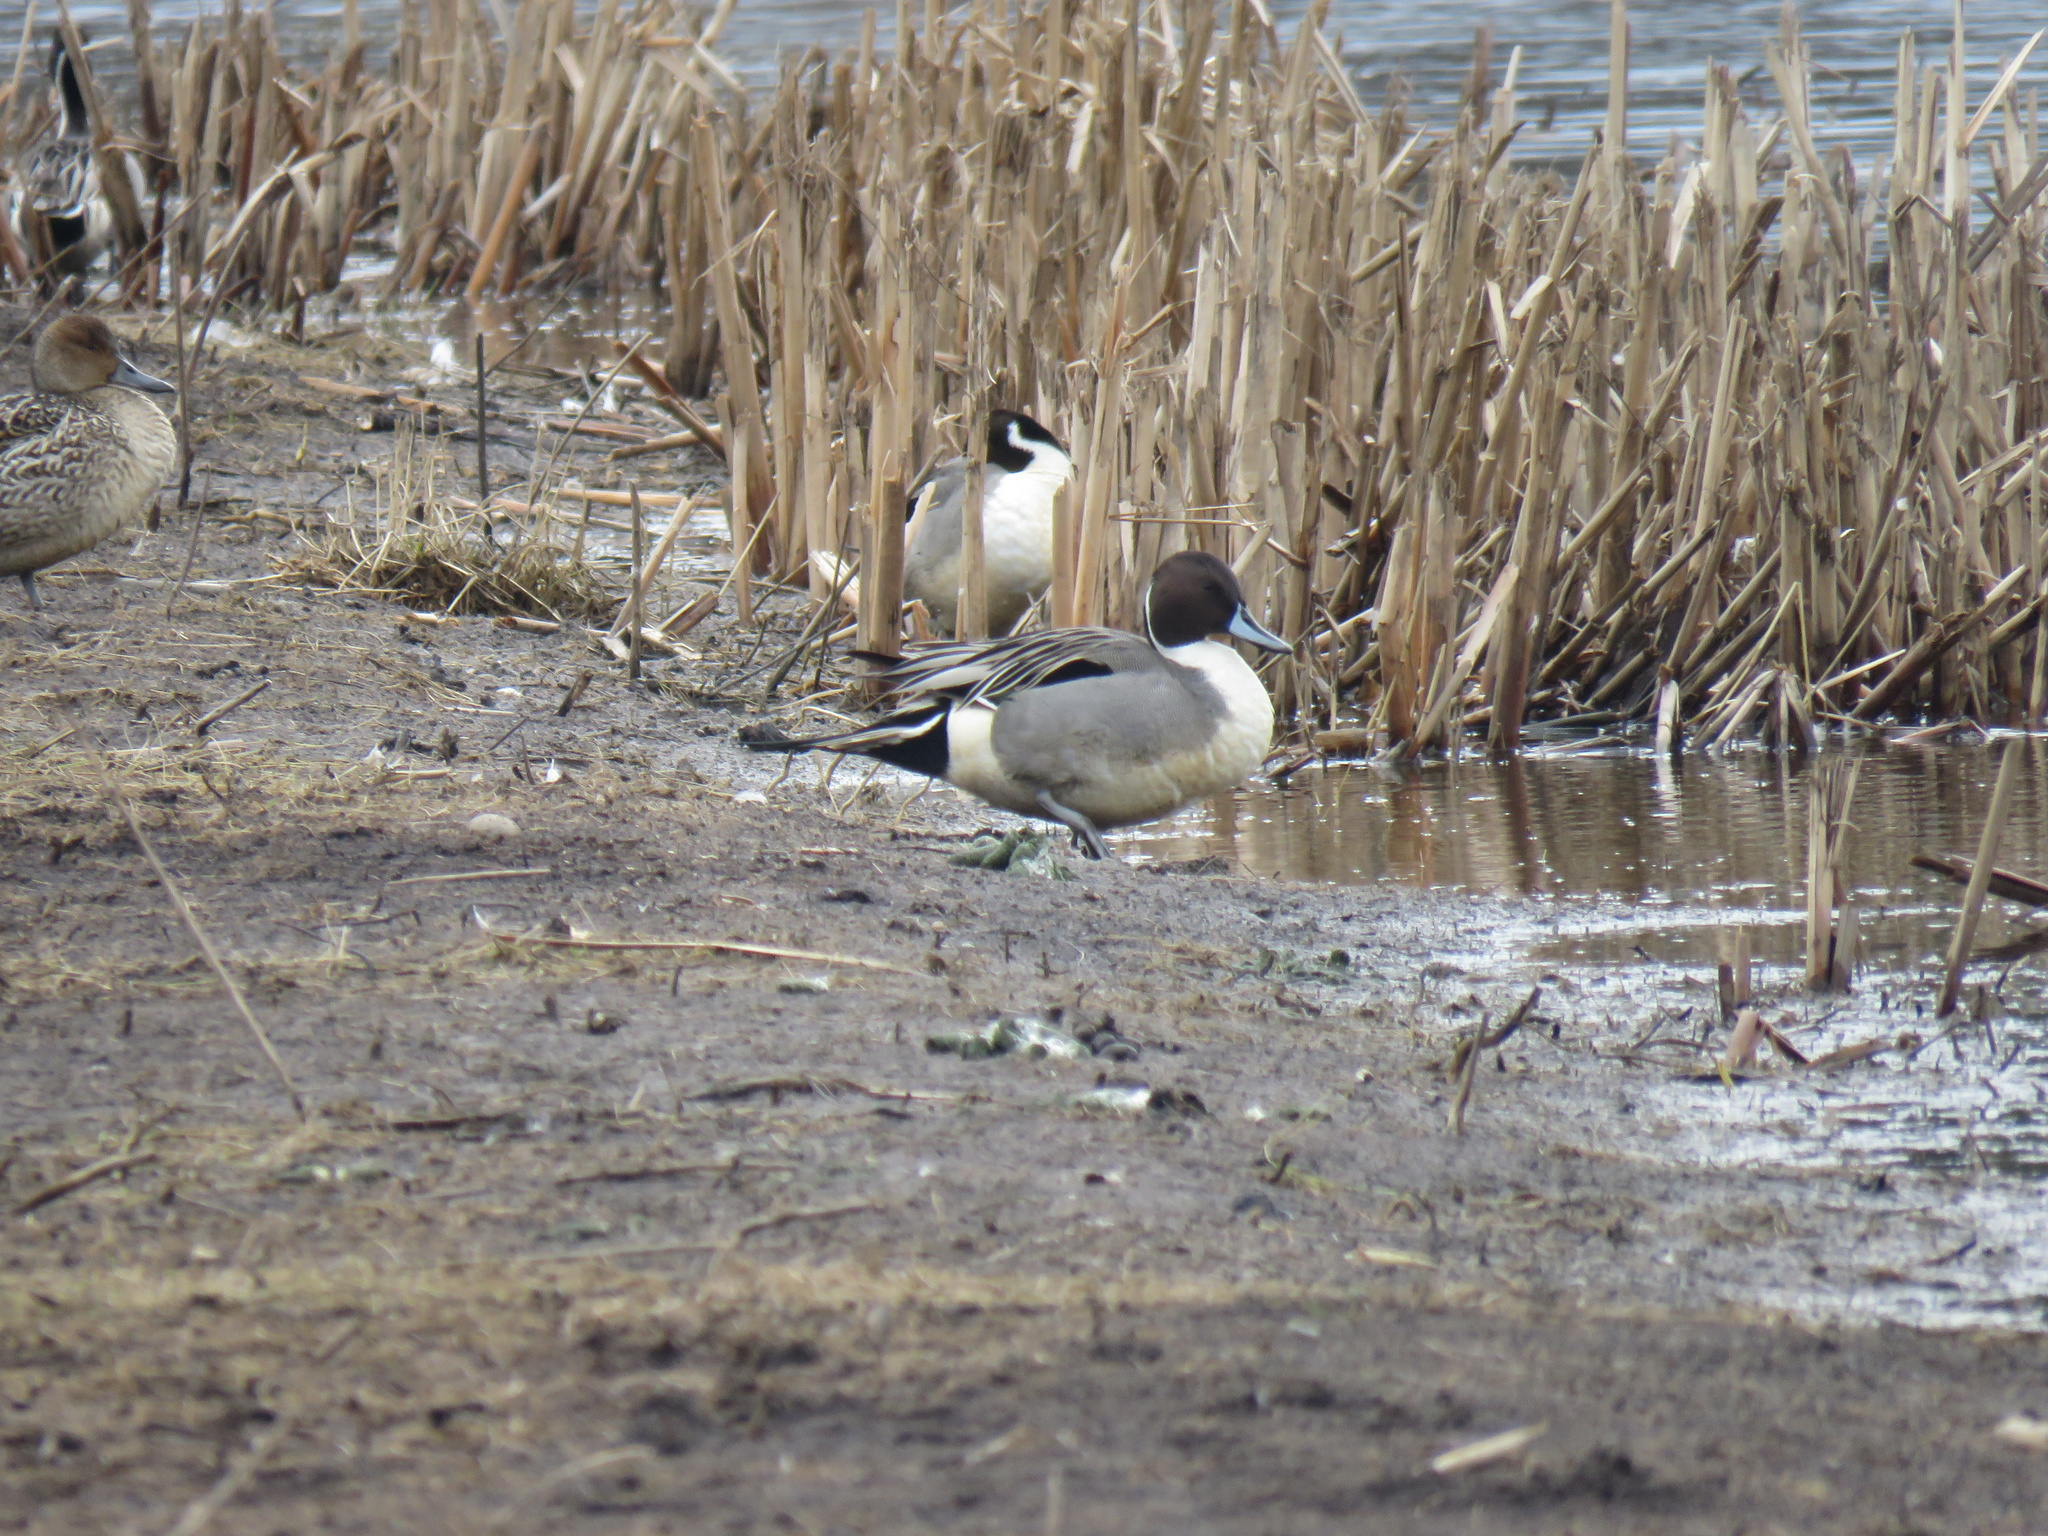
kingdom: Animalia
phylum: Chordata
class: Aves
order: Anseriformes
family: Anatidae
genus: Anas
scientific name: Anas acuta
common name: Northern pintail
